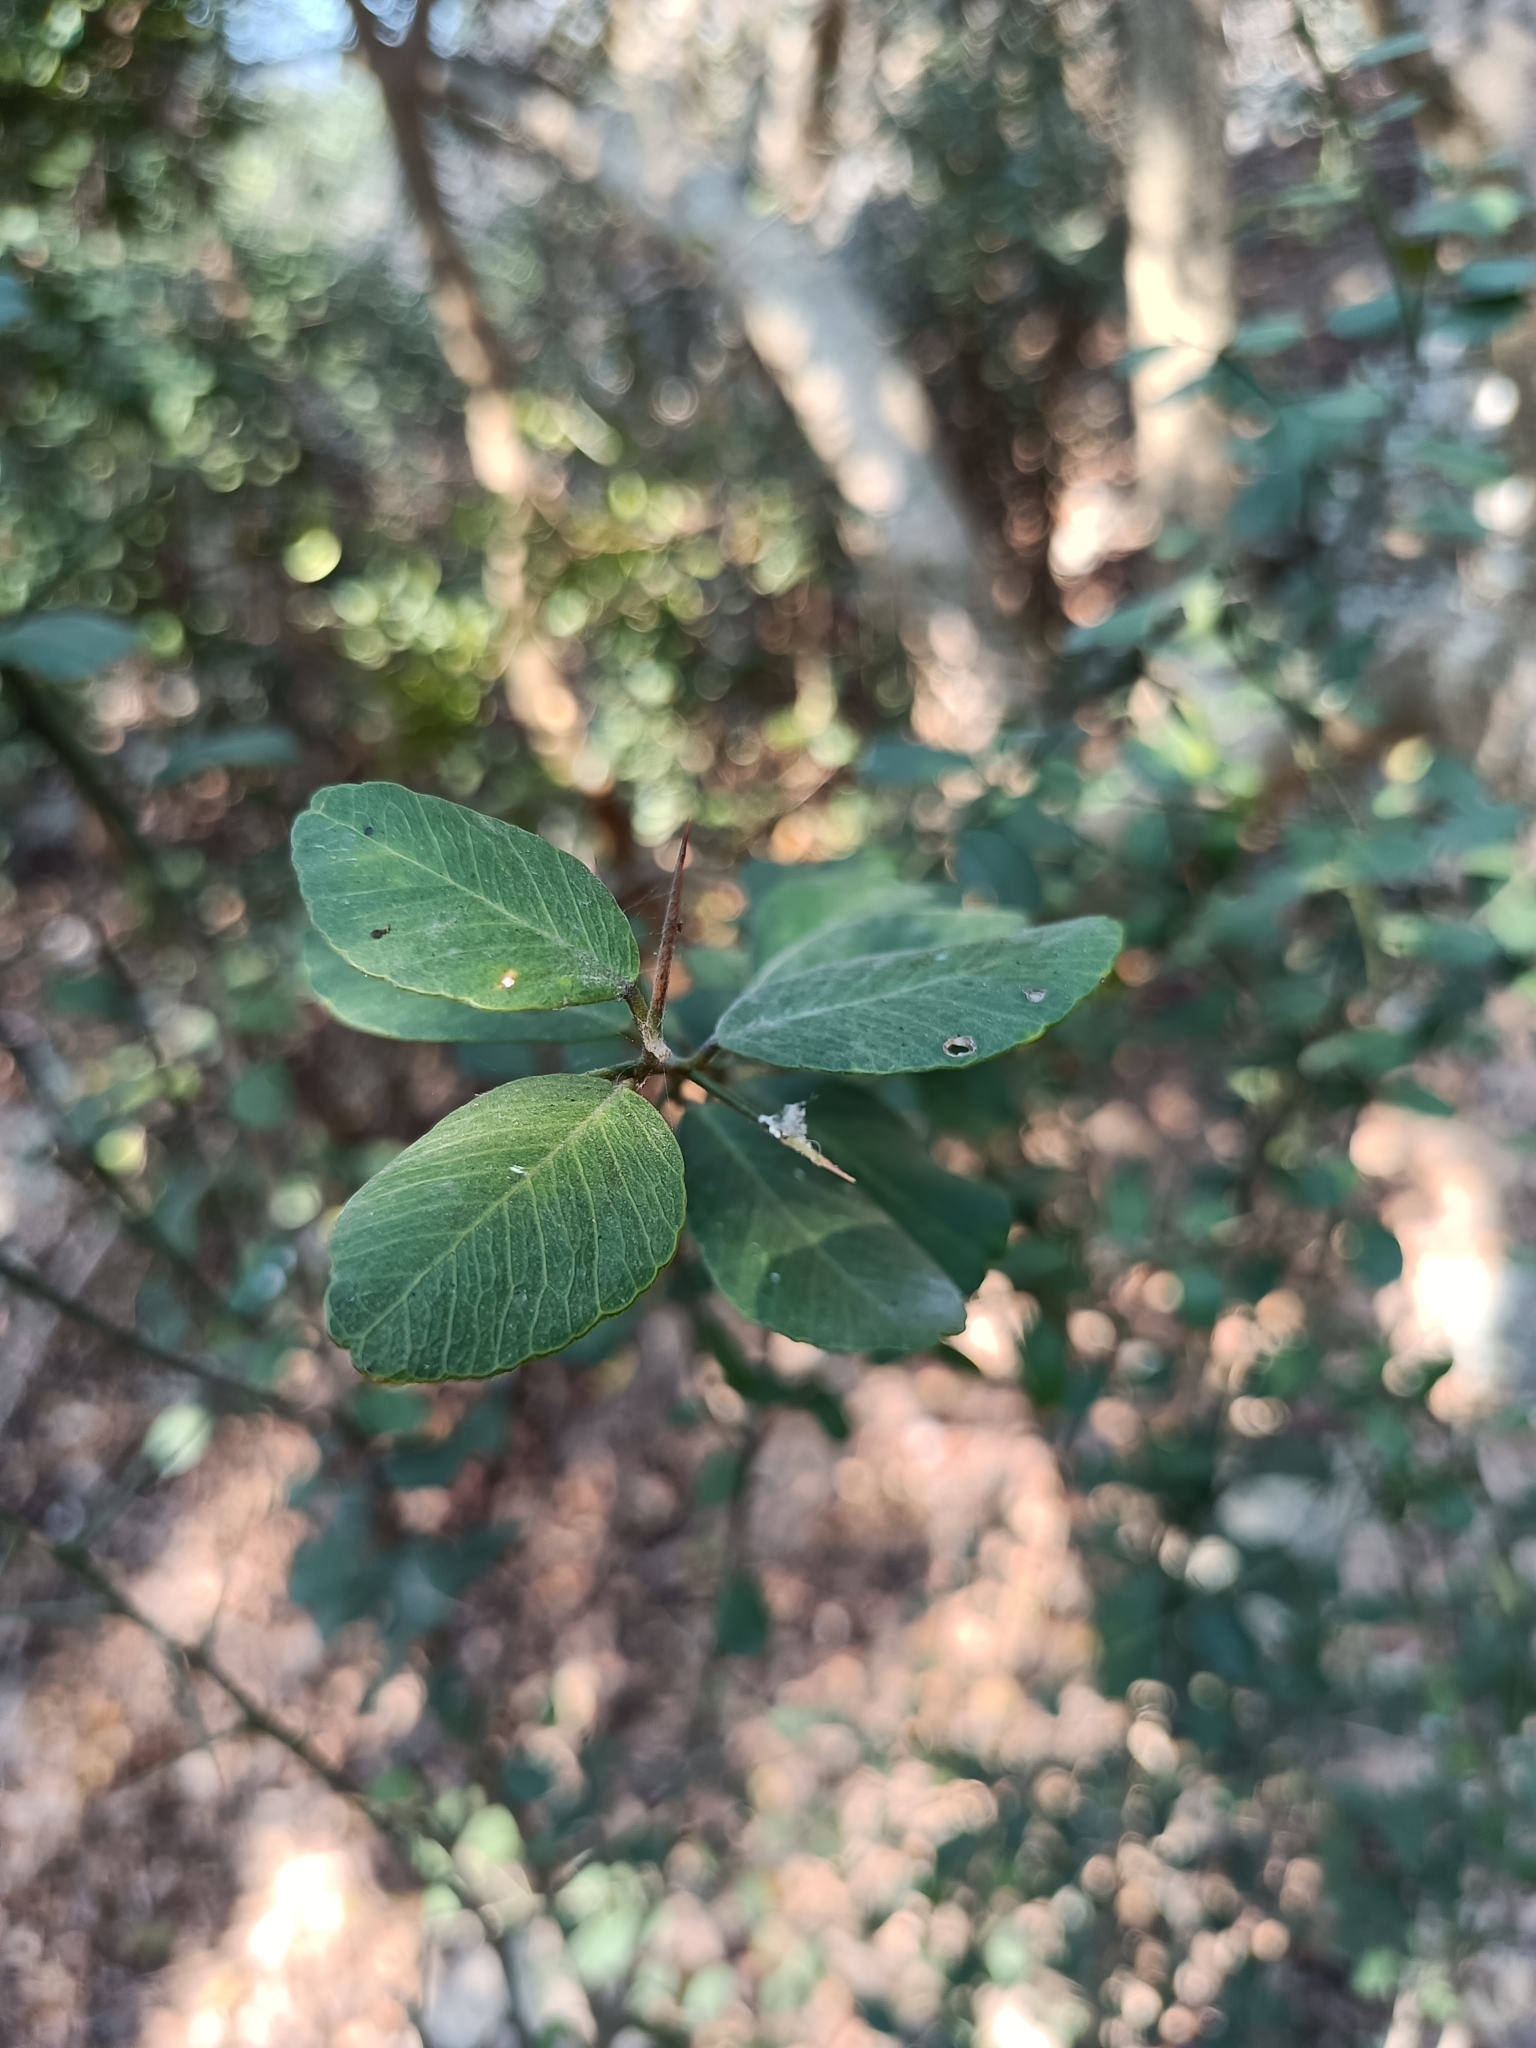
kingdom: Plantae
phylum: Tracheophyta
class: Magnoliopsida
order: Sapindales
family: Rutaceae
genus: Atalantia
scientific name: Atalantia buxifolia
